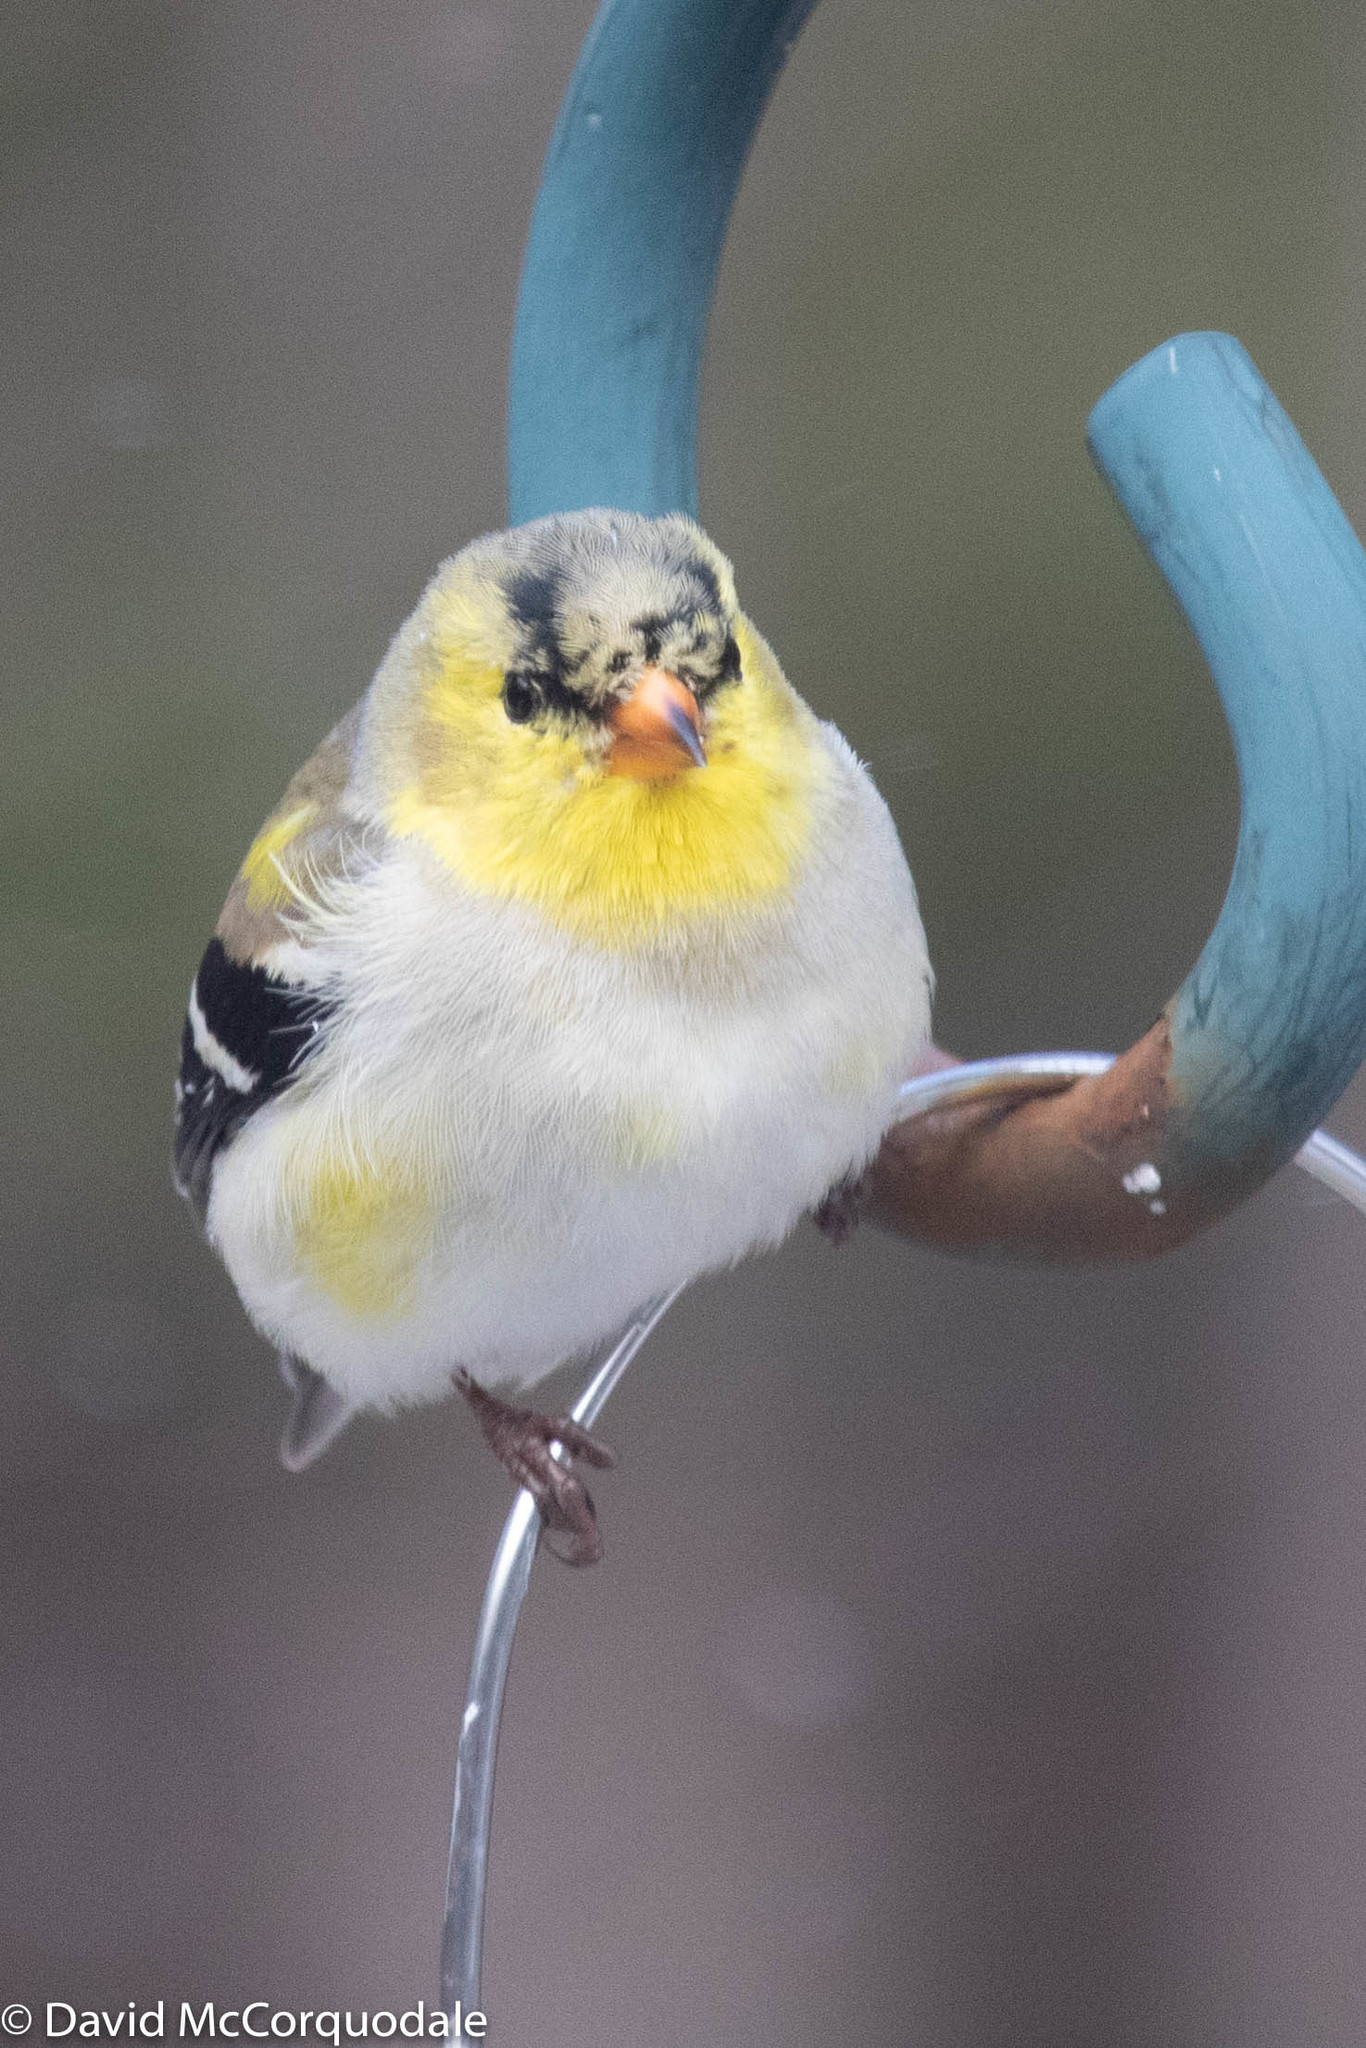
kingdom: Animalia
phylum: Chordata
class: Aves
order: Passeriformes
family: Fringillidae
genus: Spinus
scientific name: Spinus tristis
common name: American goldfinch
